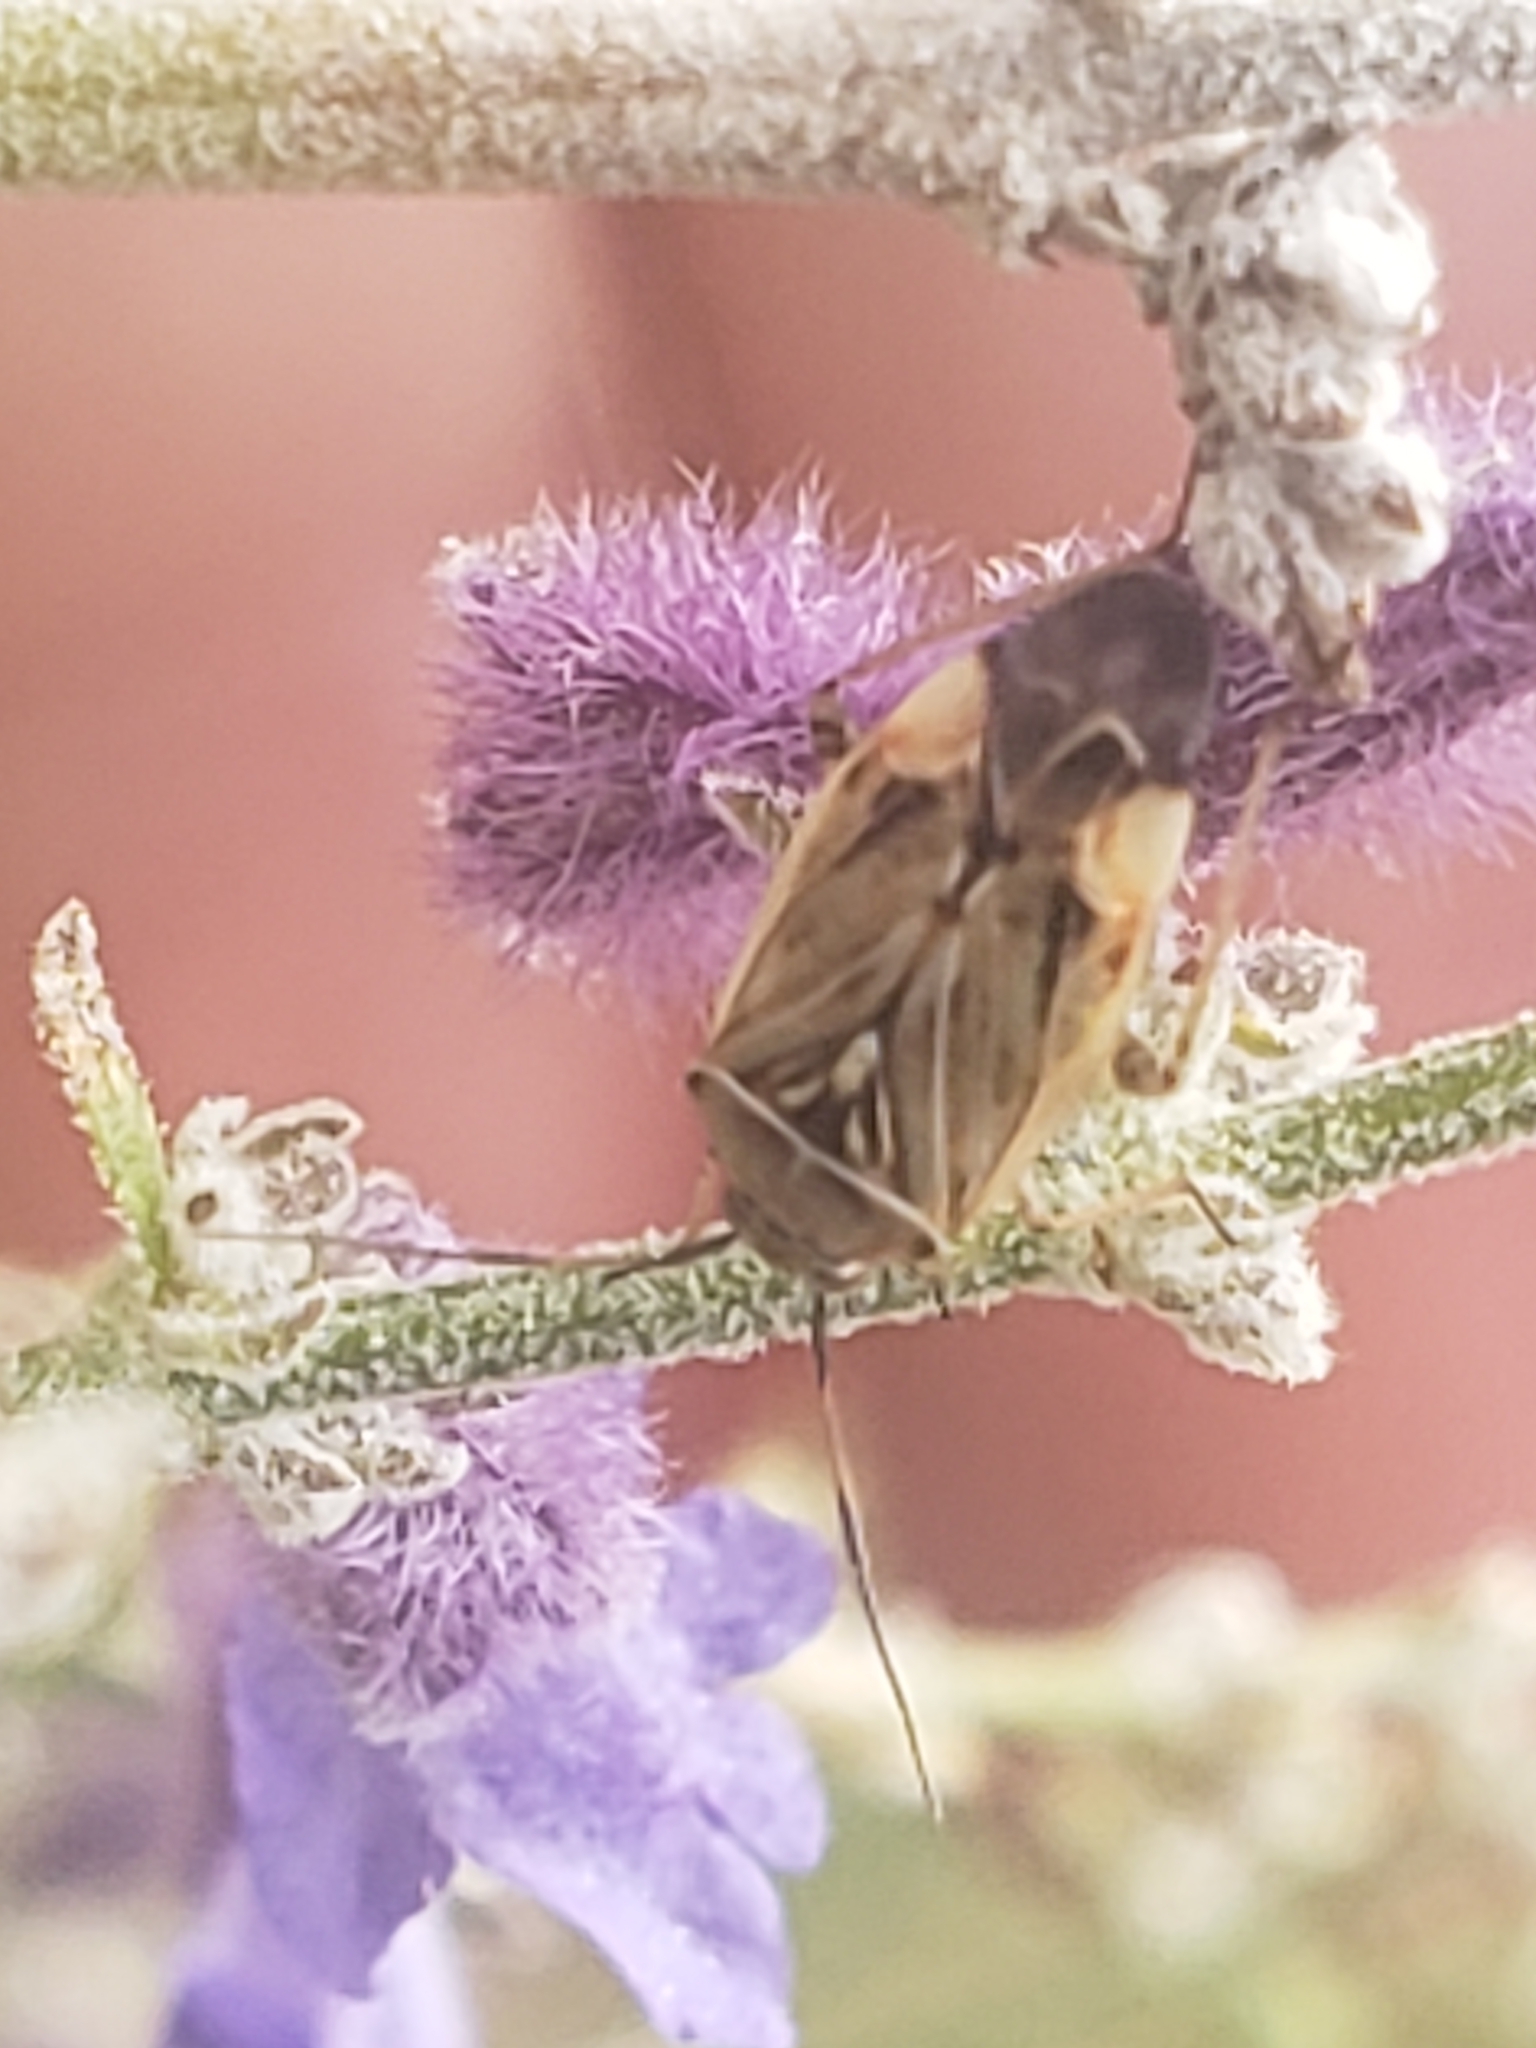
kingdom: Animalia
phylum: Arthropoda
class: Insecta
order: Hemiptera
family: Miridae
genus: Lygus
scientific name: Lygus lineolaris
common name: North american tarnished plant bug
